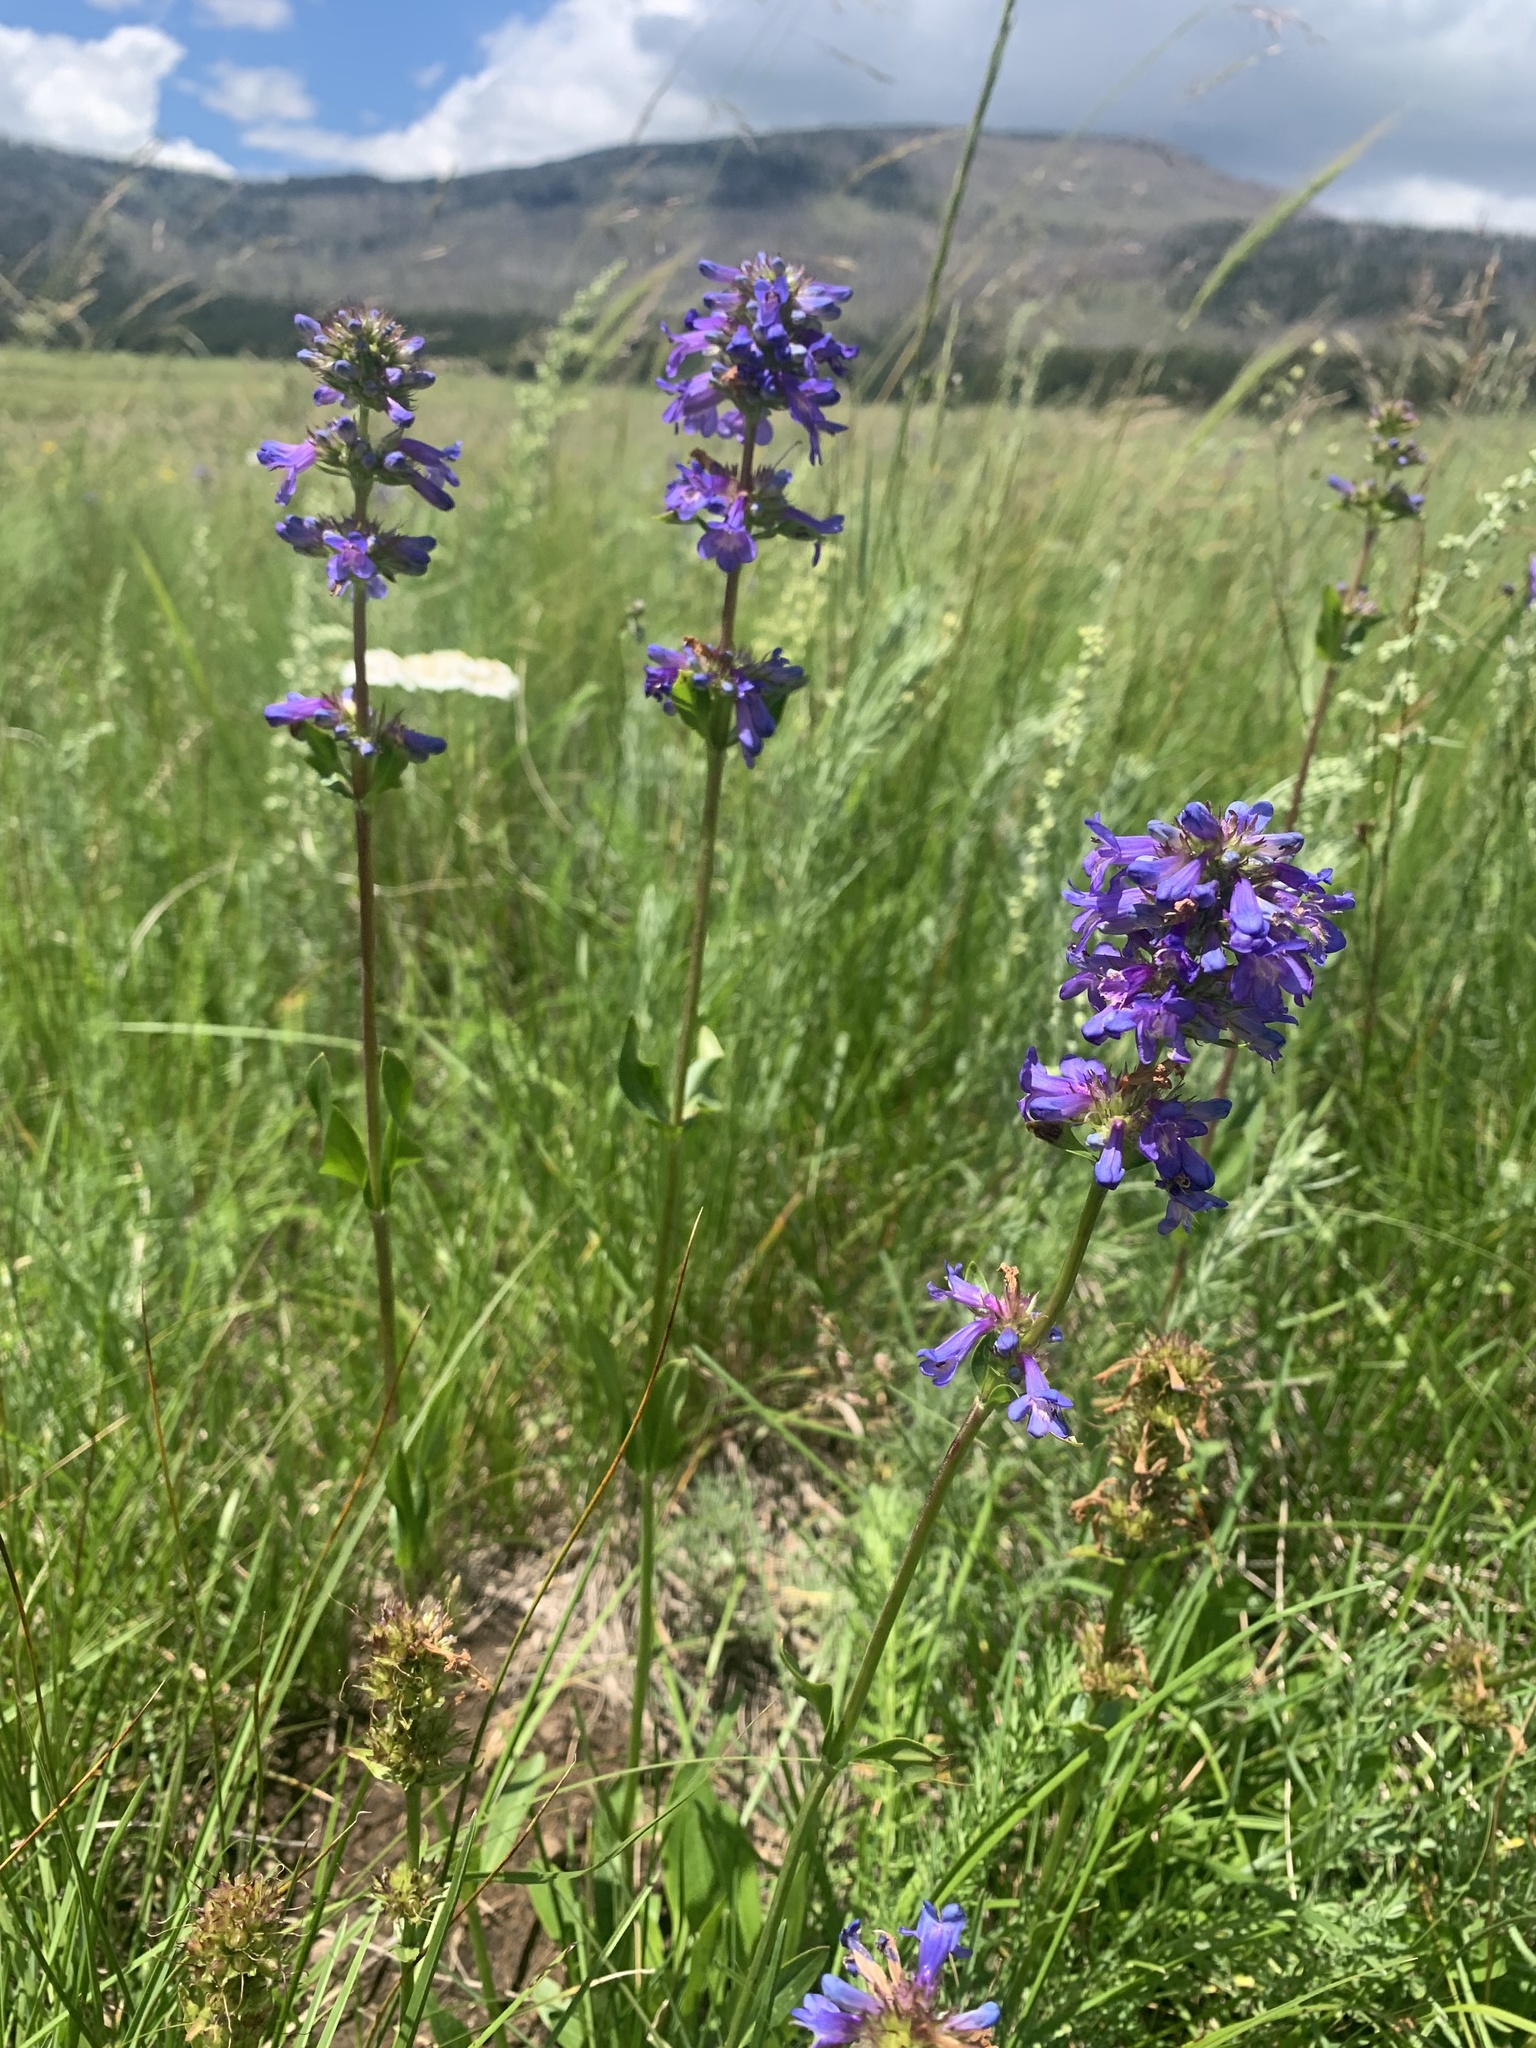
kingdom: Plantae
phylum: Tracheophyta
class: Magnoliopsida
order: Lamiales
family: Plantaginaceae
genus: Penstemon
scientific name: Penstemon rydbergii
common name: Rydberg's beardtongue
